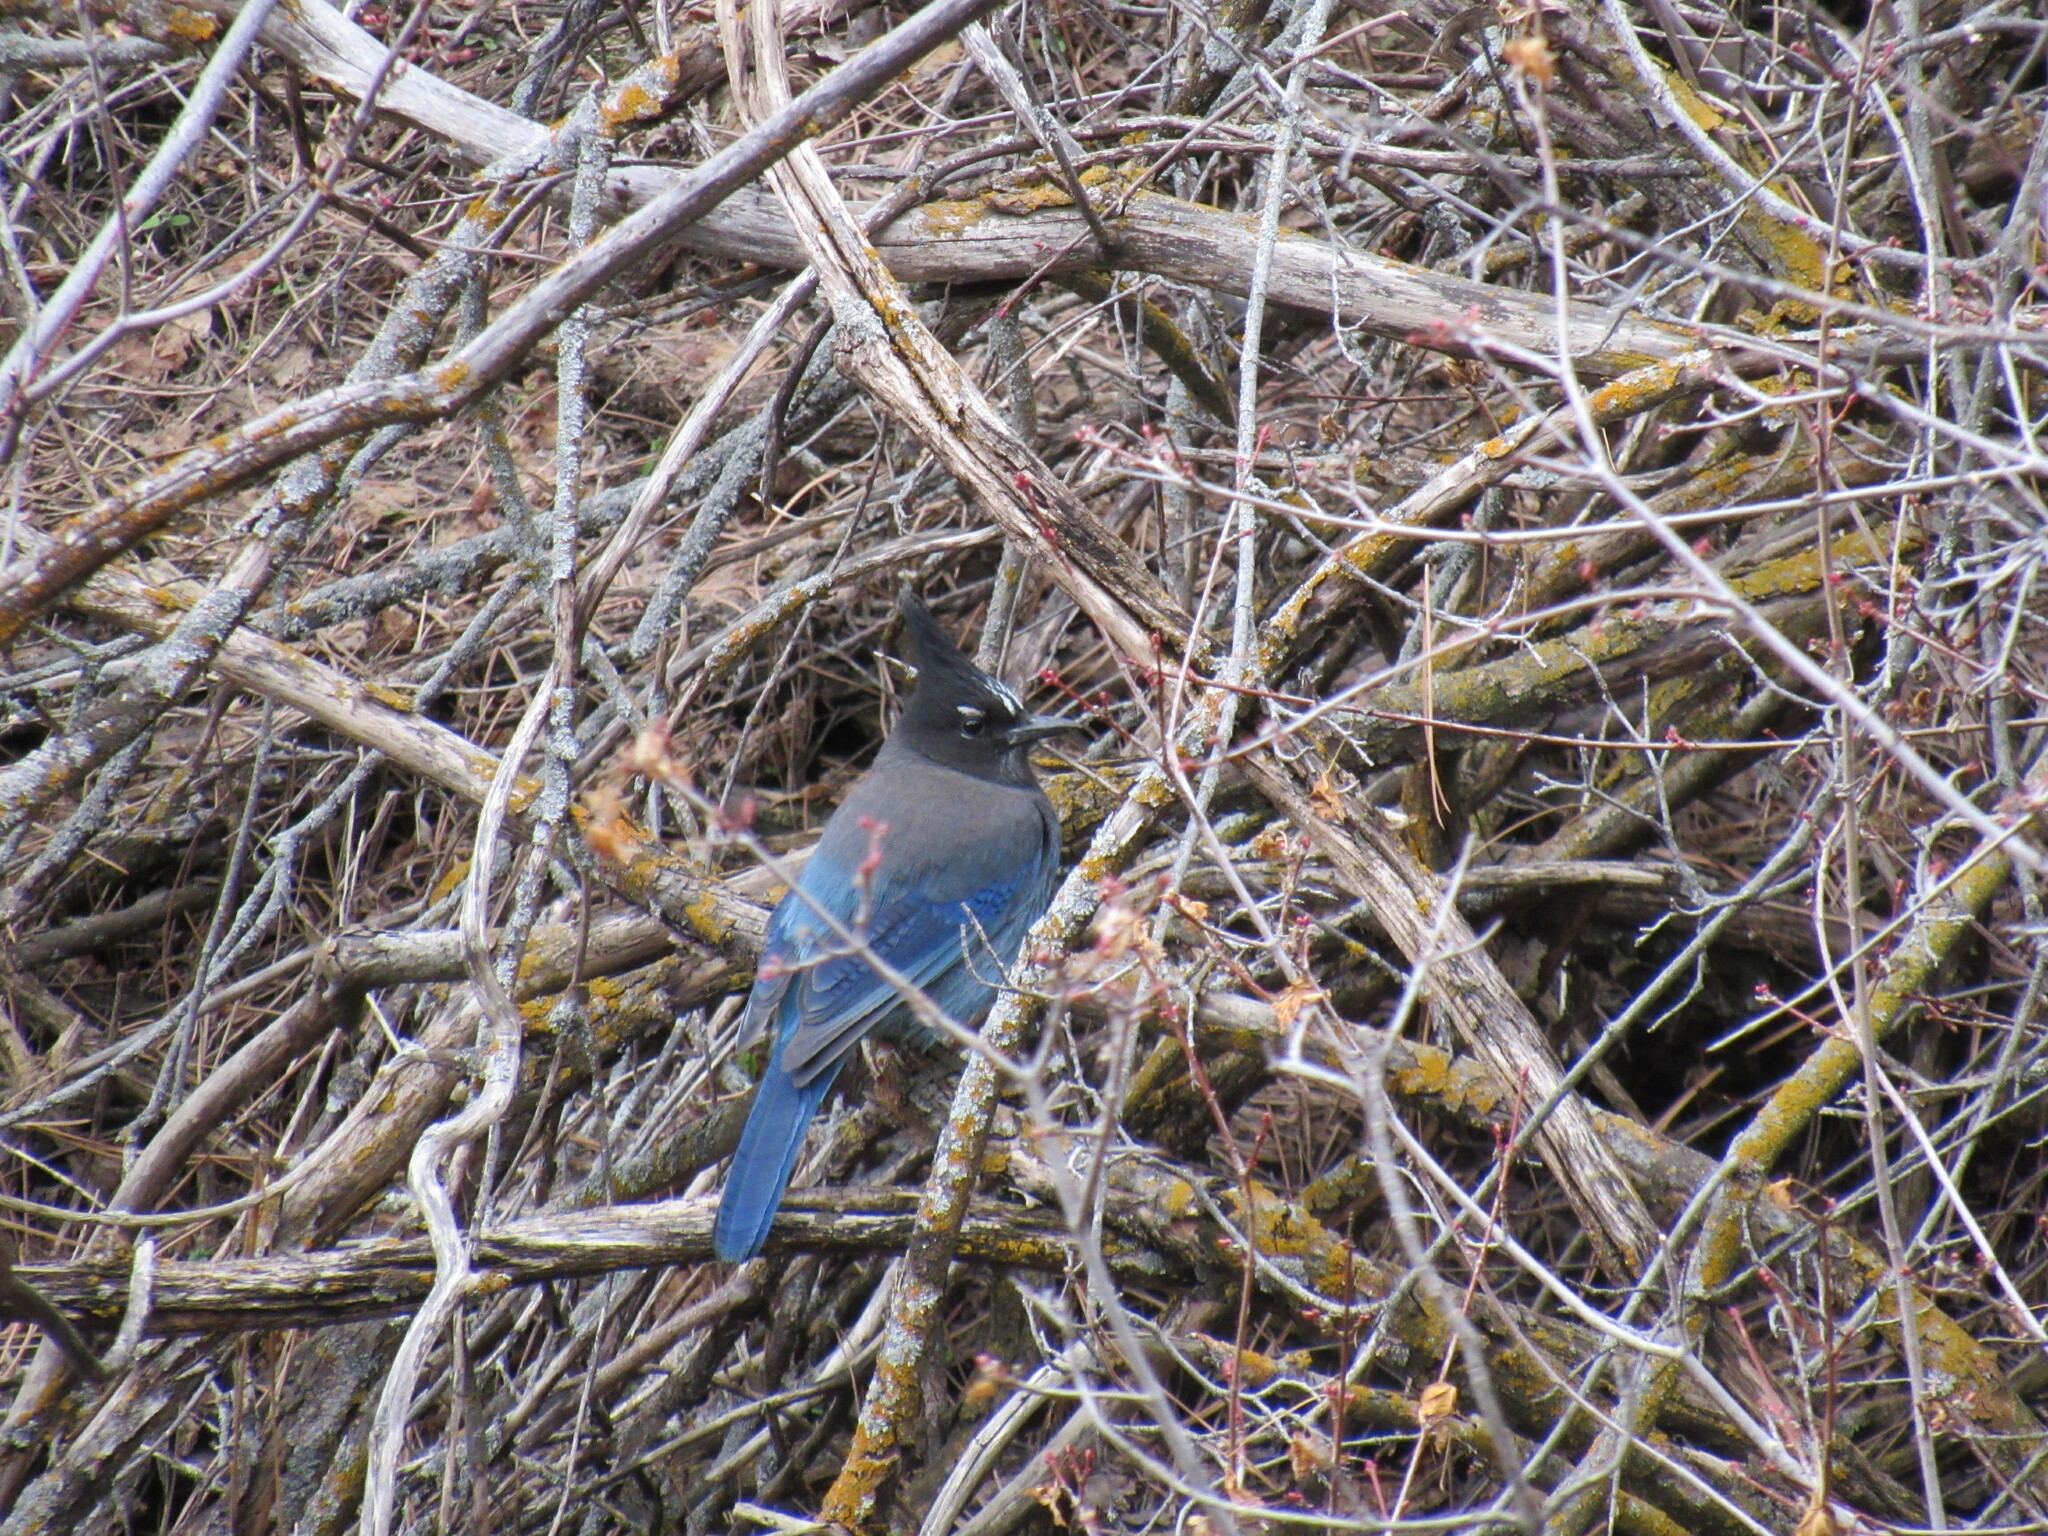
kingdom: Animalia
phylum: Chordata
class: Aves
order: Passeriformes
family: Corvidae
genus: Cyanocitta
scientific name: Cyanocitta stelleri
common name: Steller's jay
